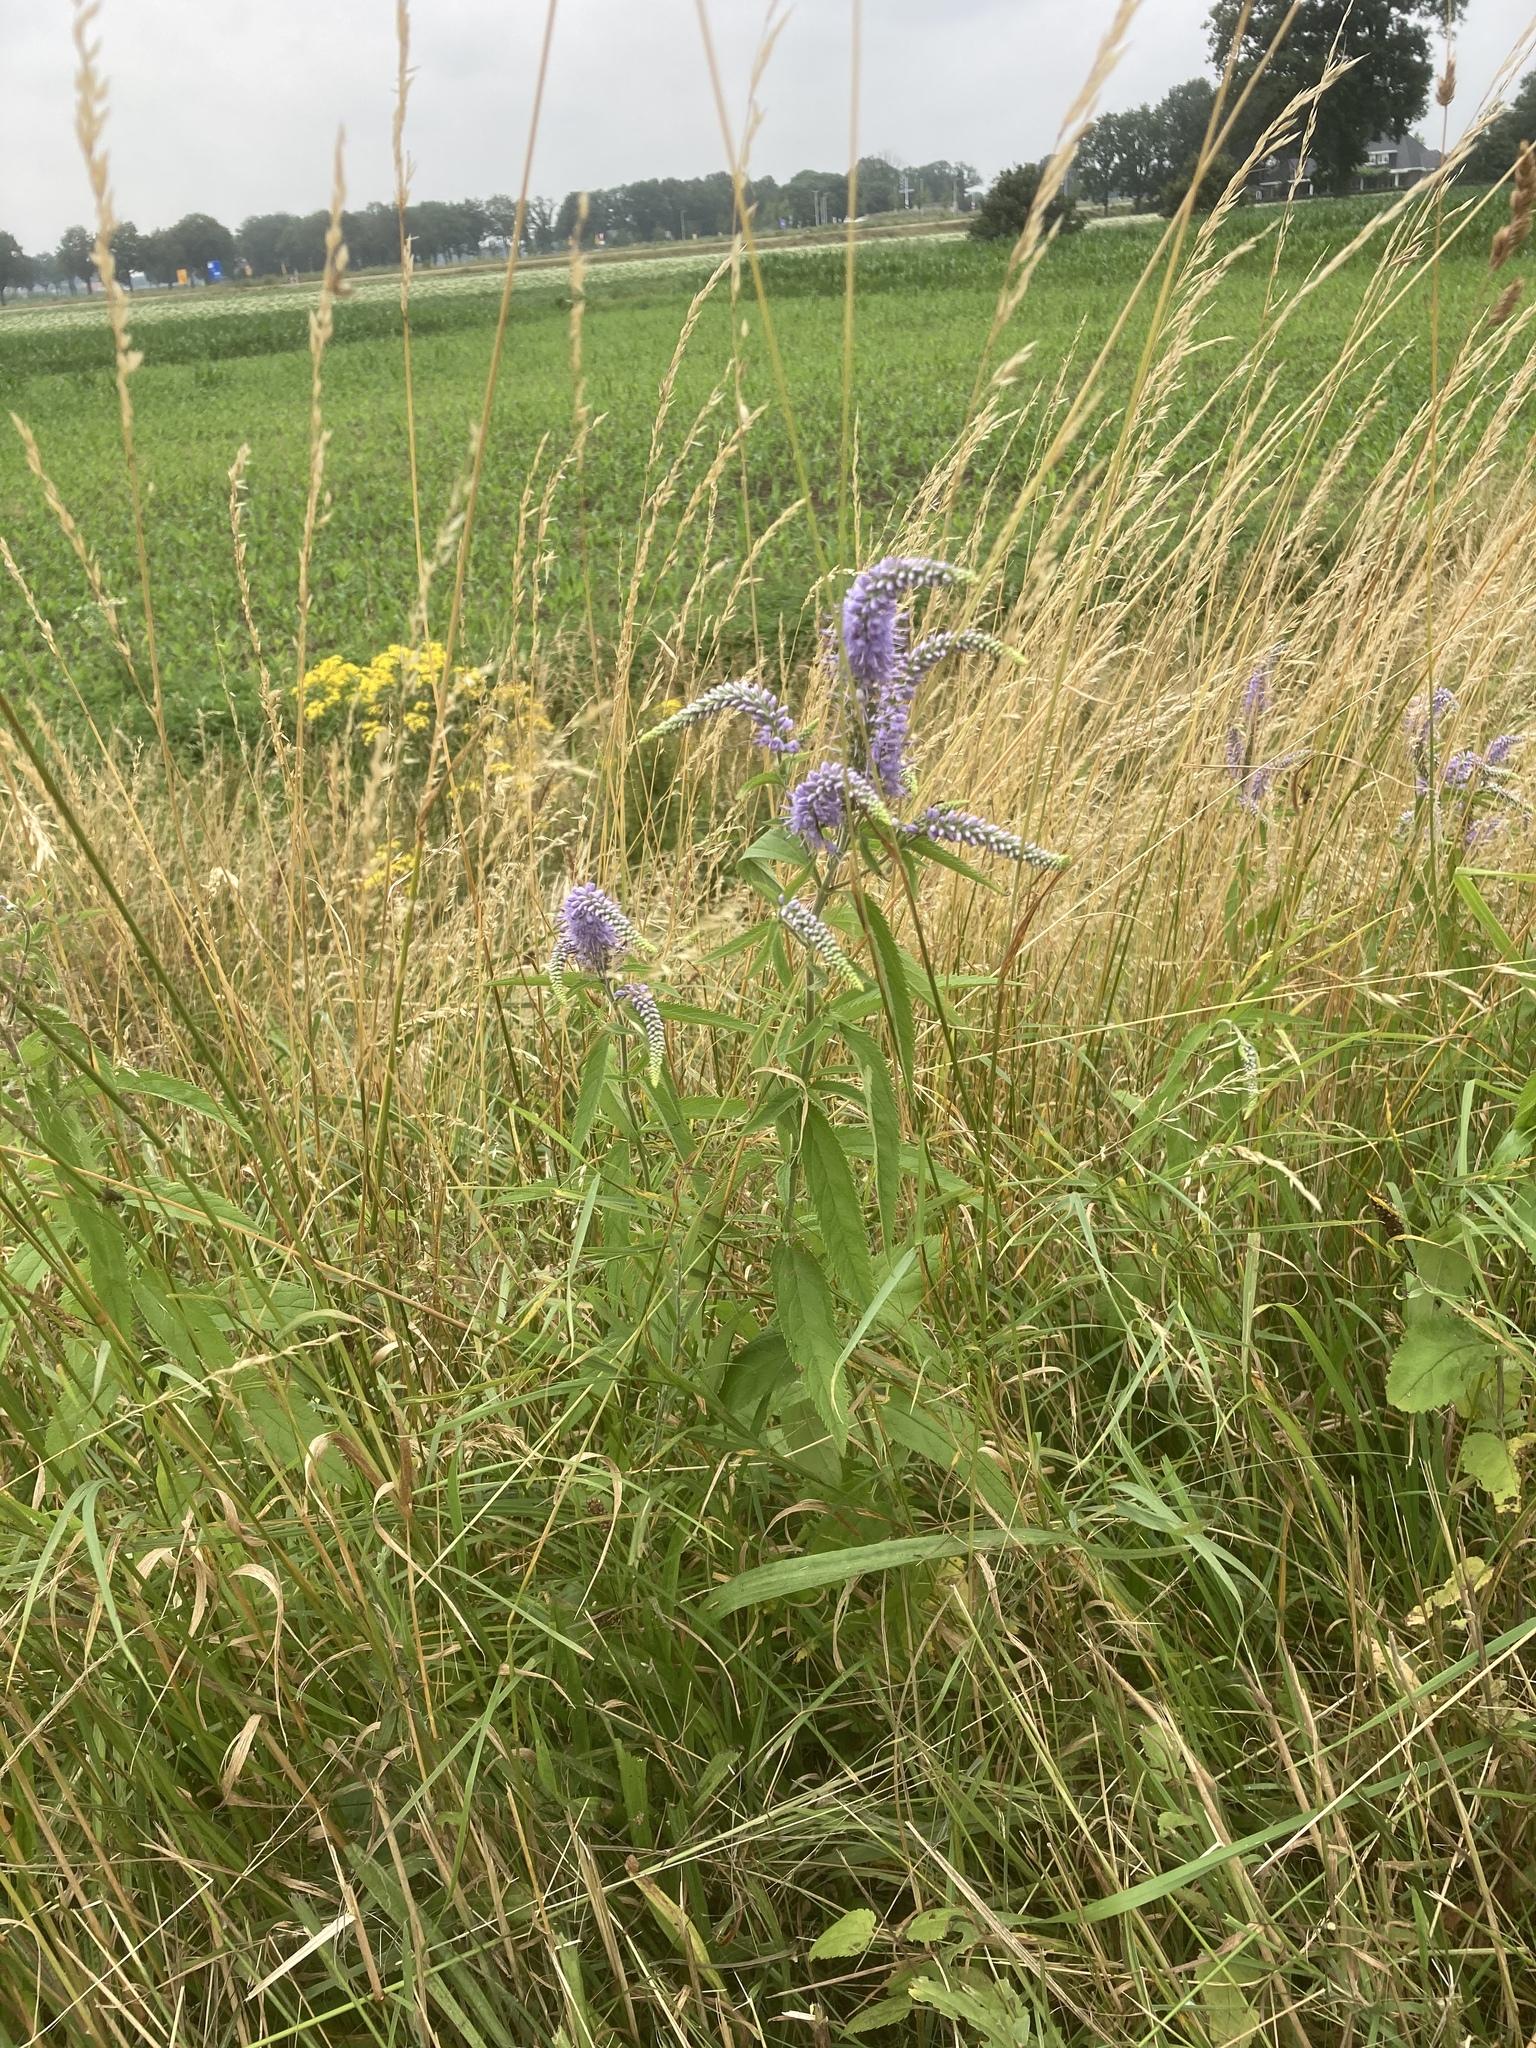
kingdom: Plantae
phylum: Tracheophyta
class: Magnoliopsida
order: Lamiales
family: Plantaginaceae
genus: Veronica
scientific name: Veronica longifolia
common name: Garden speedwell
